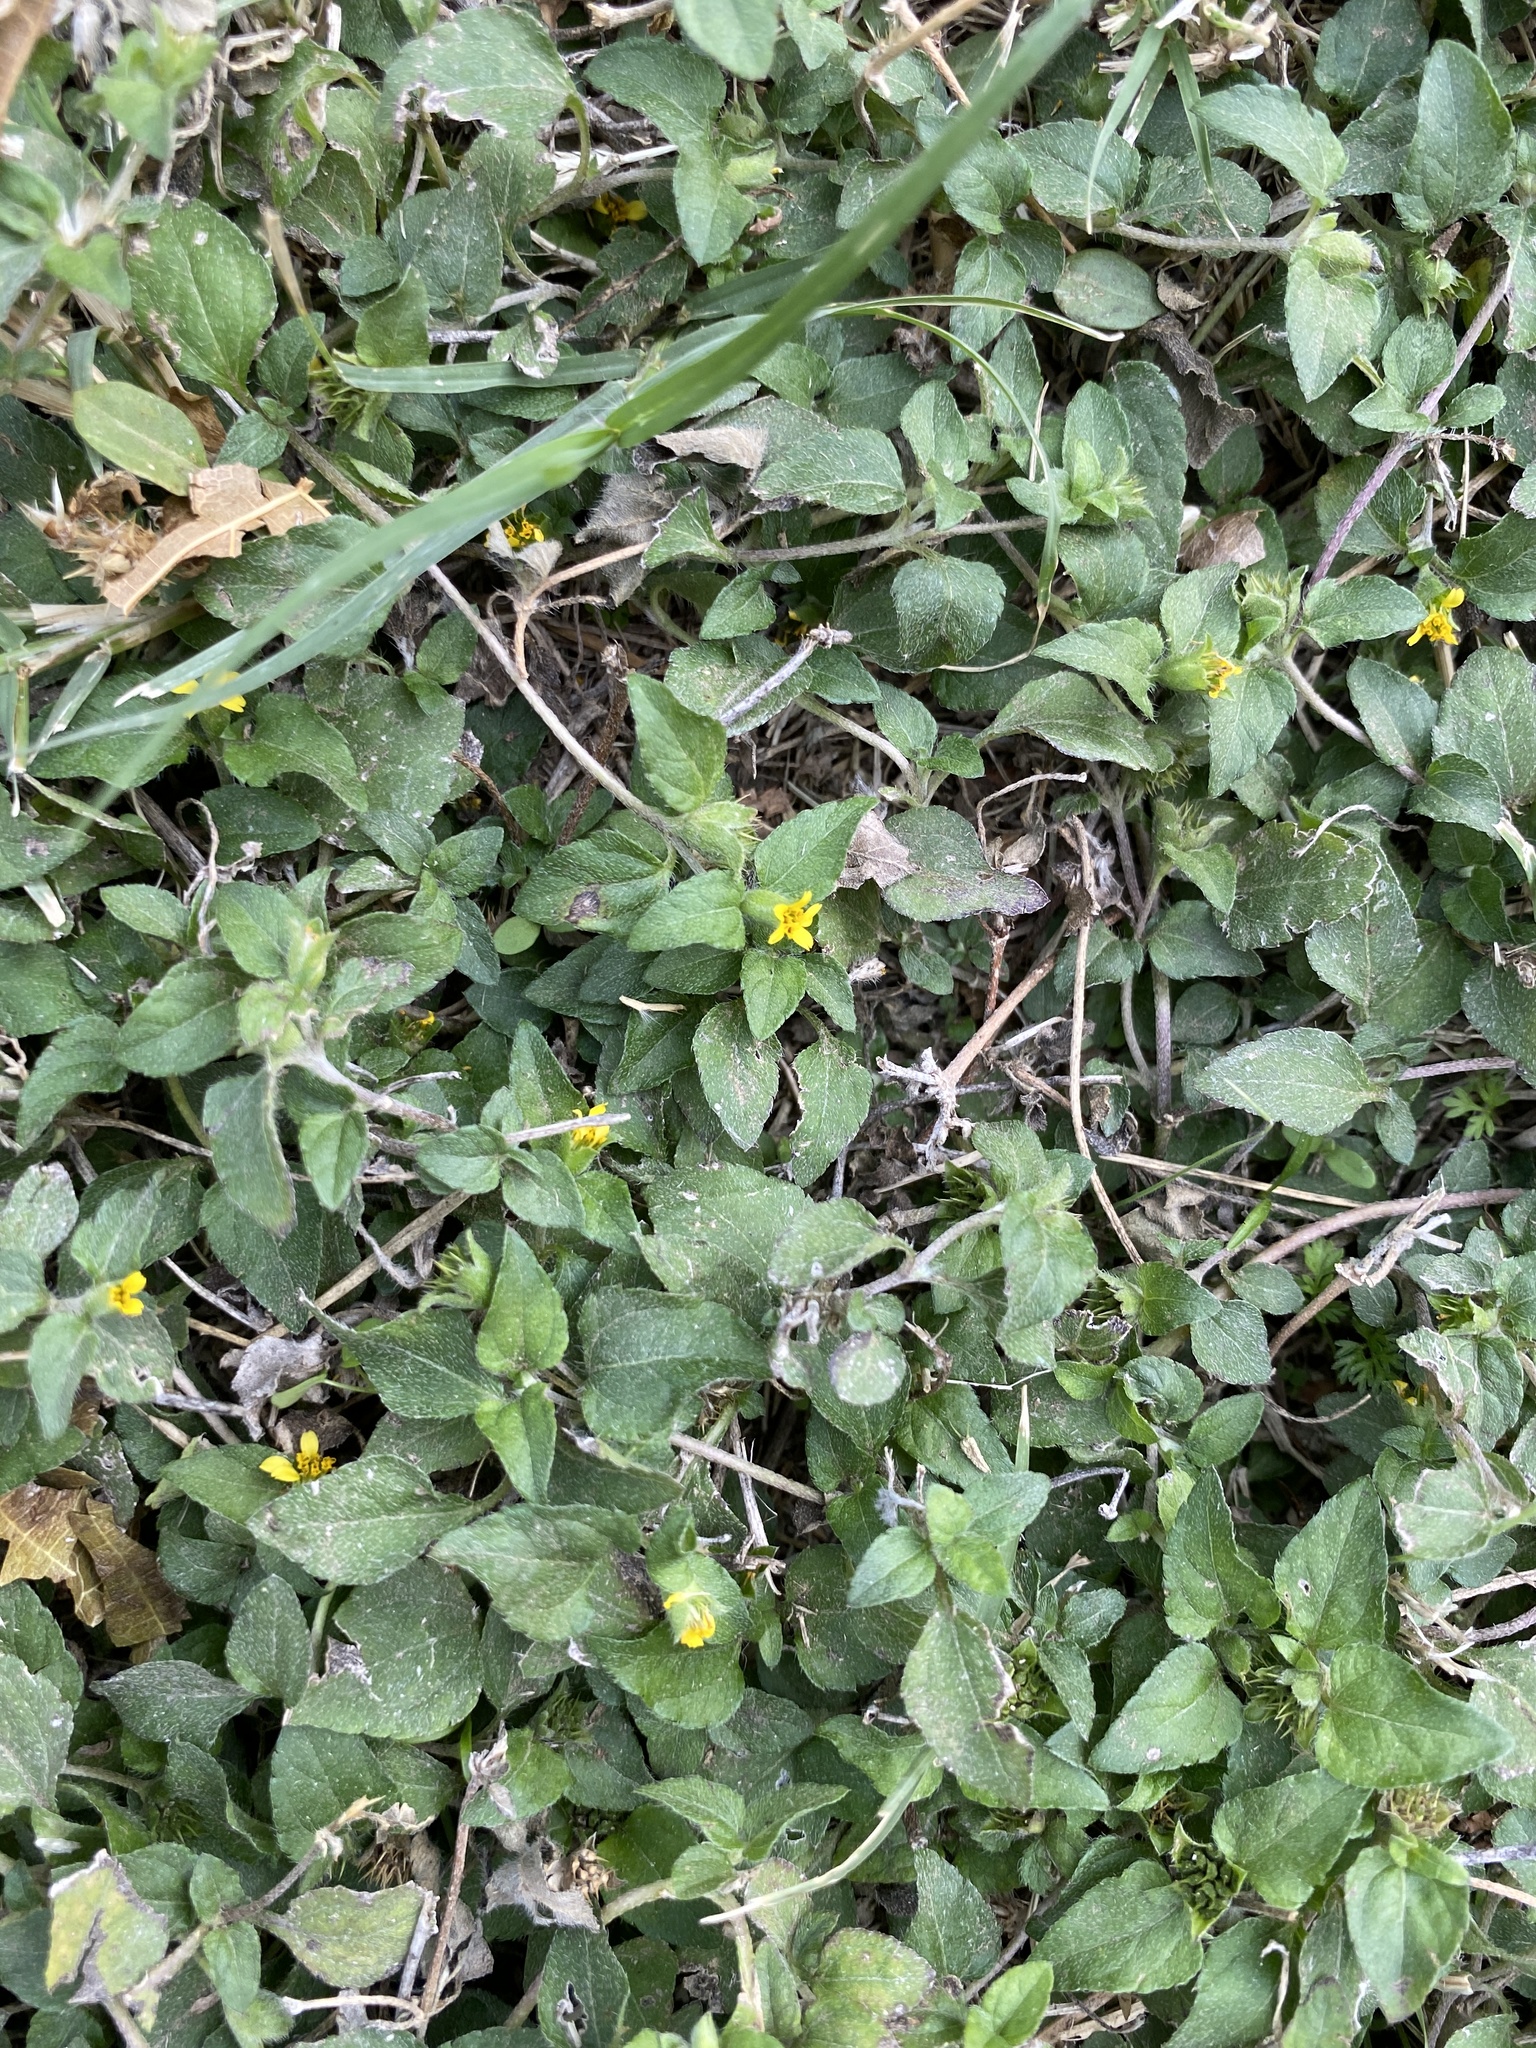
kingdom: Plantae
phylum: Tracheophyta
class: Magnoliopsida
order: Asterales
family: Asteraceae
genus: Calyptocarpus
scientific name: Calyptocarpus vialis
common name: Straggler daisy
